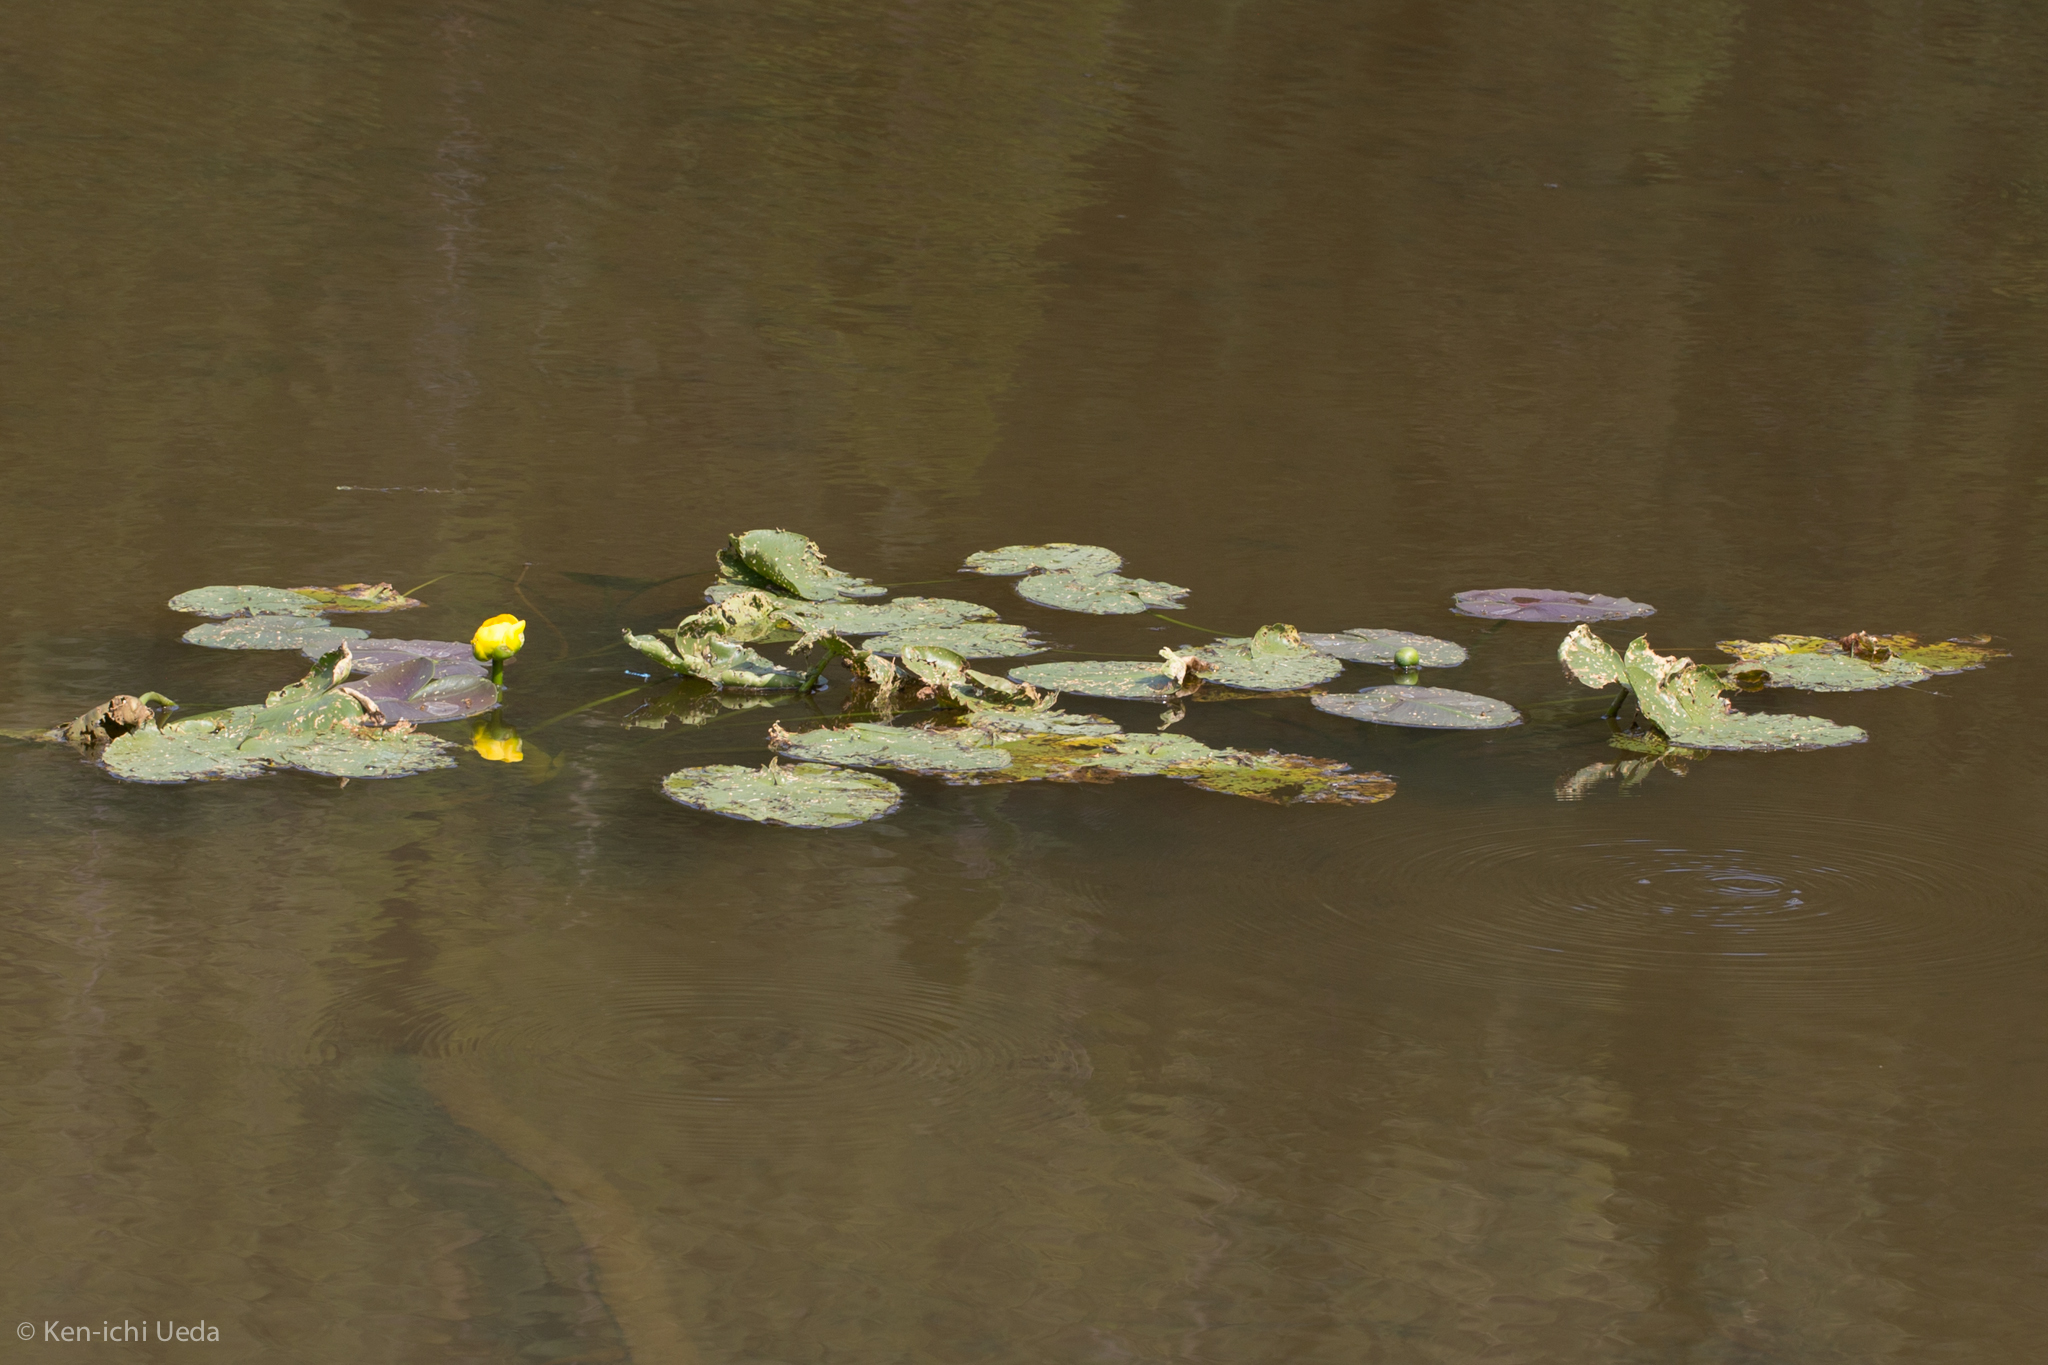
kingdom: Plantae
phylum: Tracheophyta
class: Magnoliopsida
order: Nymphaeales
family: Nymphaeaceae
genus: Nuphar
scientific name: Nuphar polysepala
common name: Rocky mountain cow-lily
